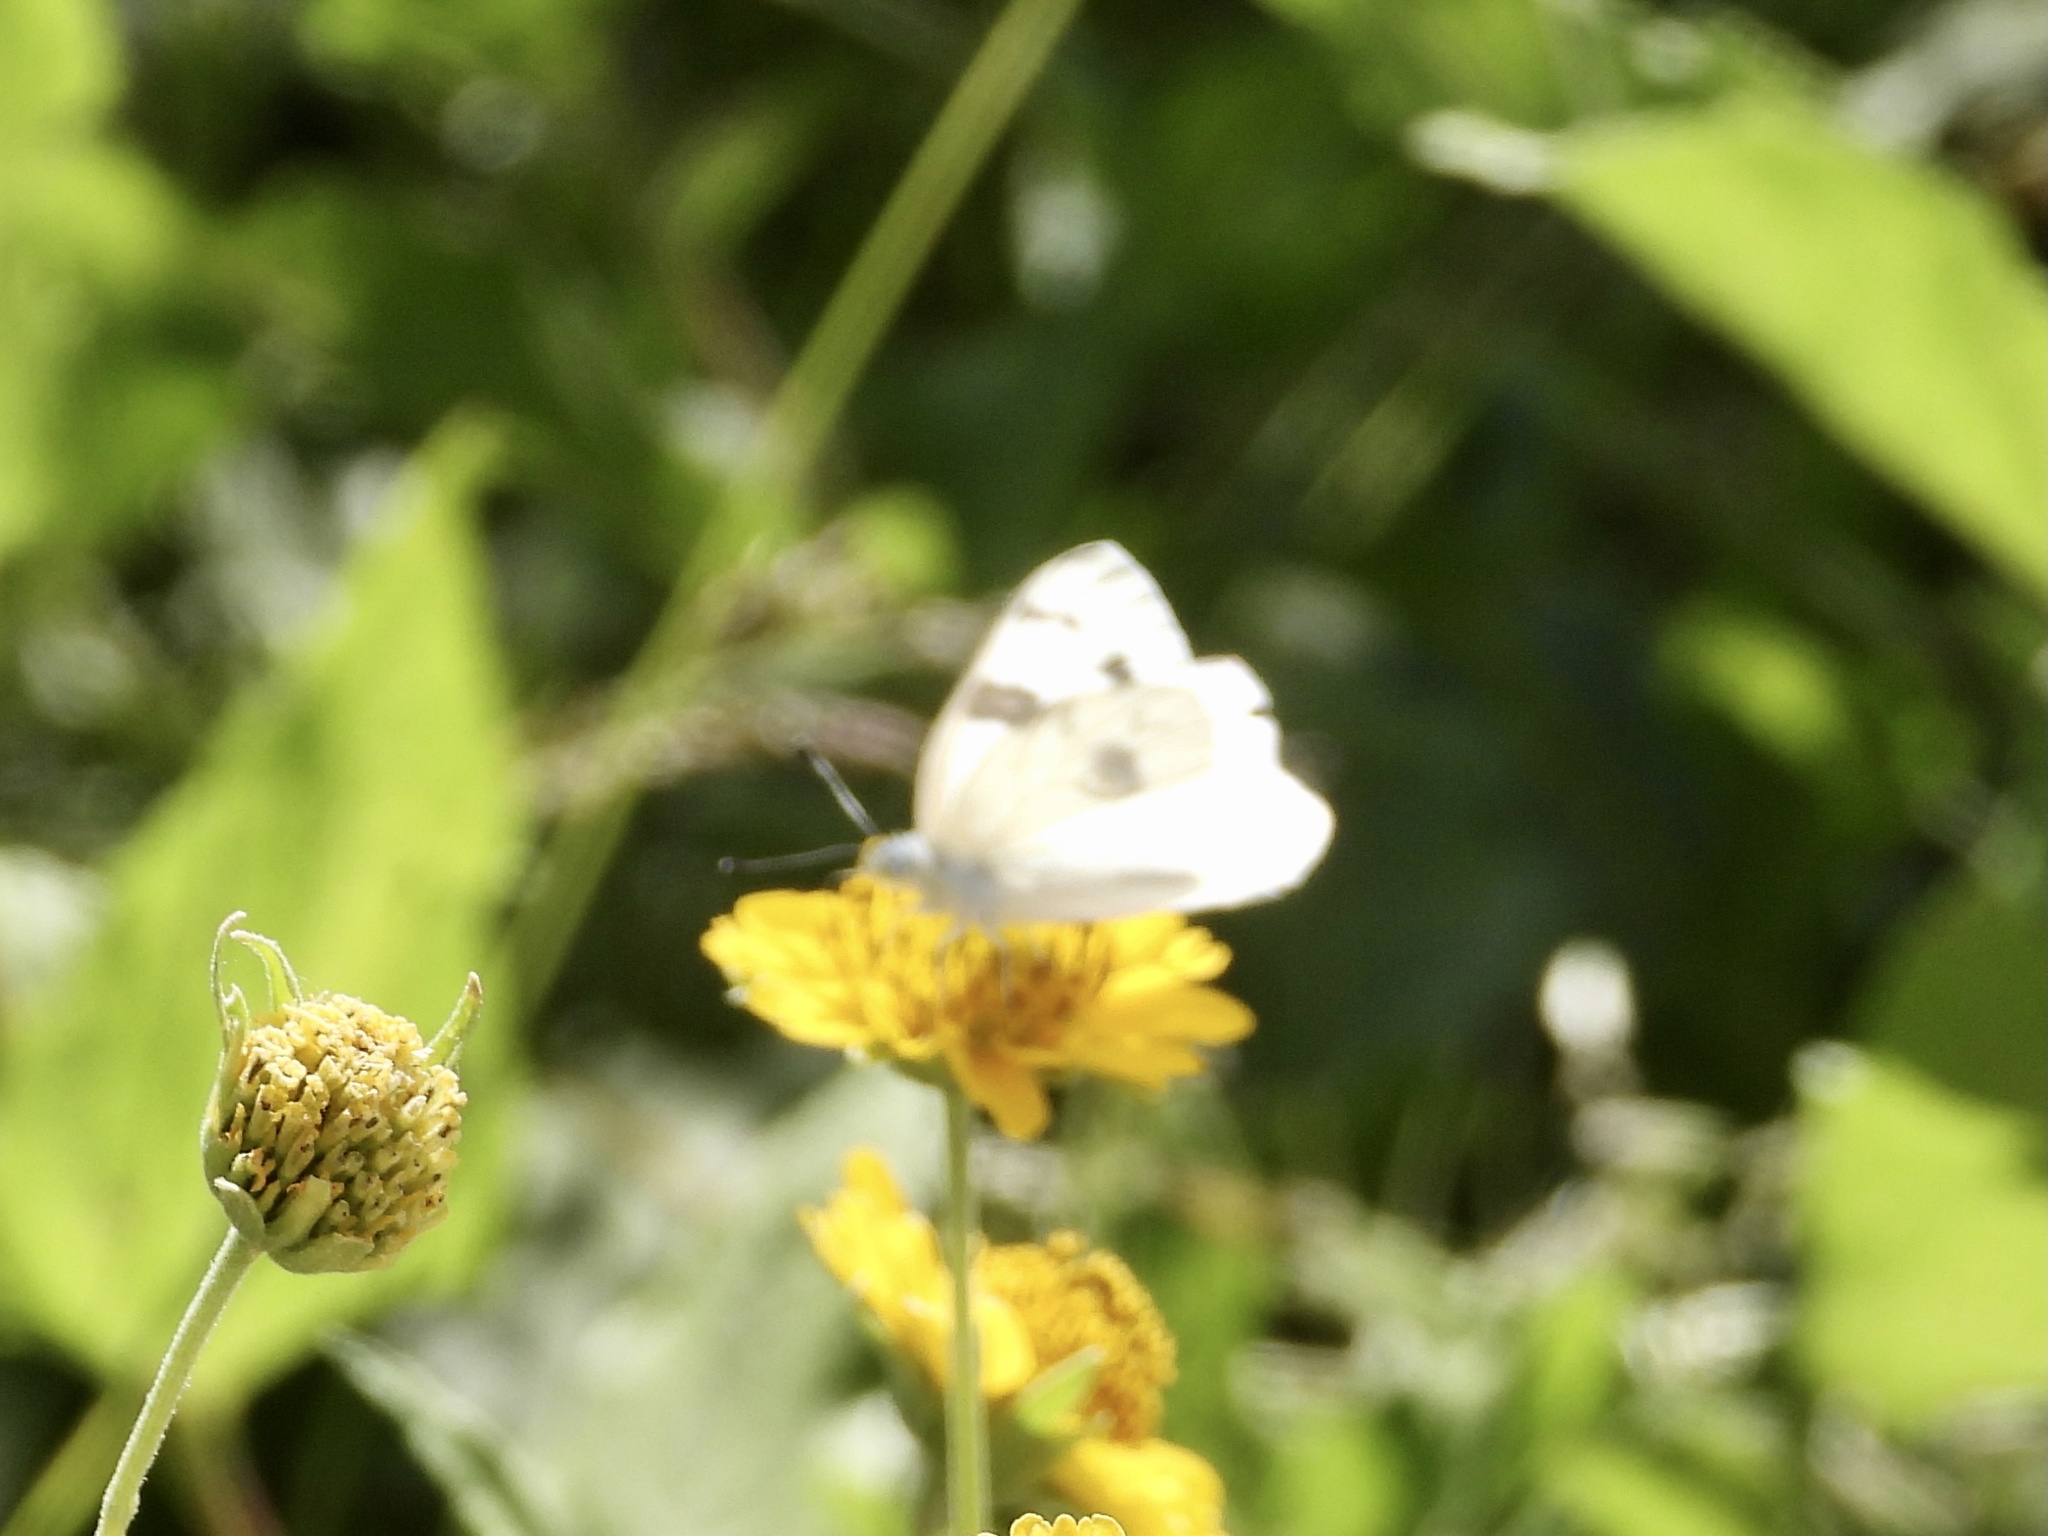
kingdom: Animalia
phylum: Arthropoda
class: Insecta
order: Lepidoptera
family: Pieridae
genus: Pontia
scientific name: Pontia protodice
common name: Checkered white
